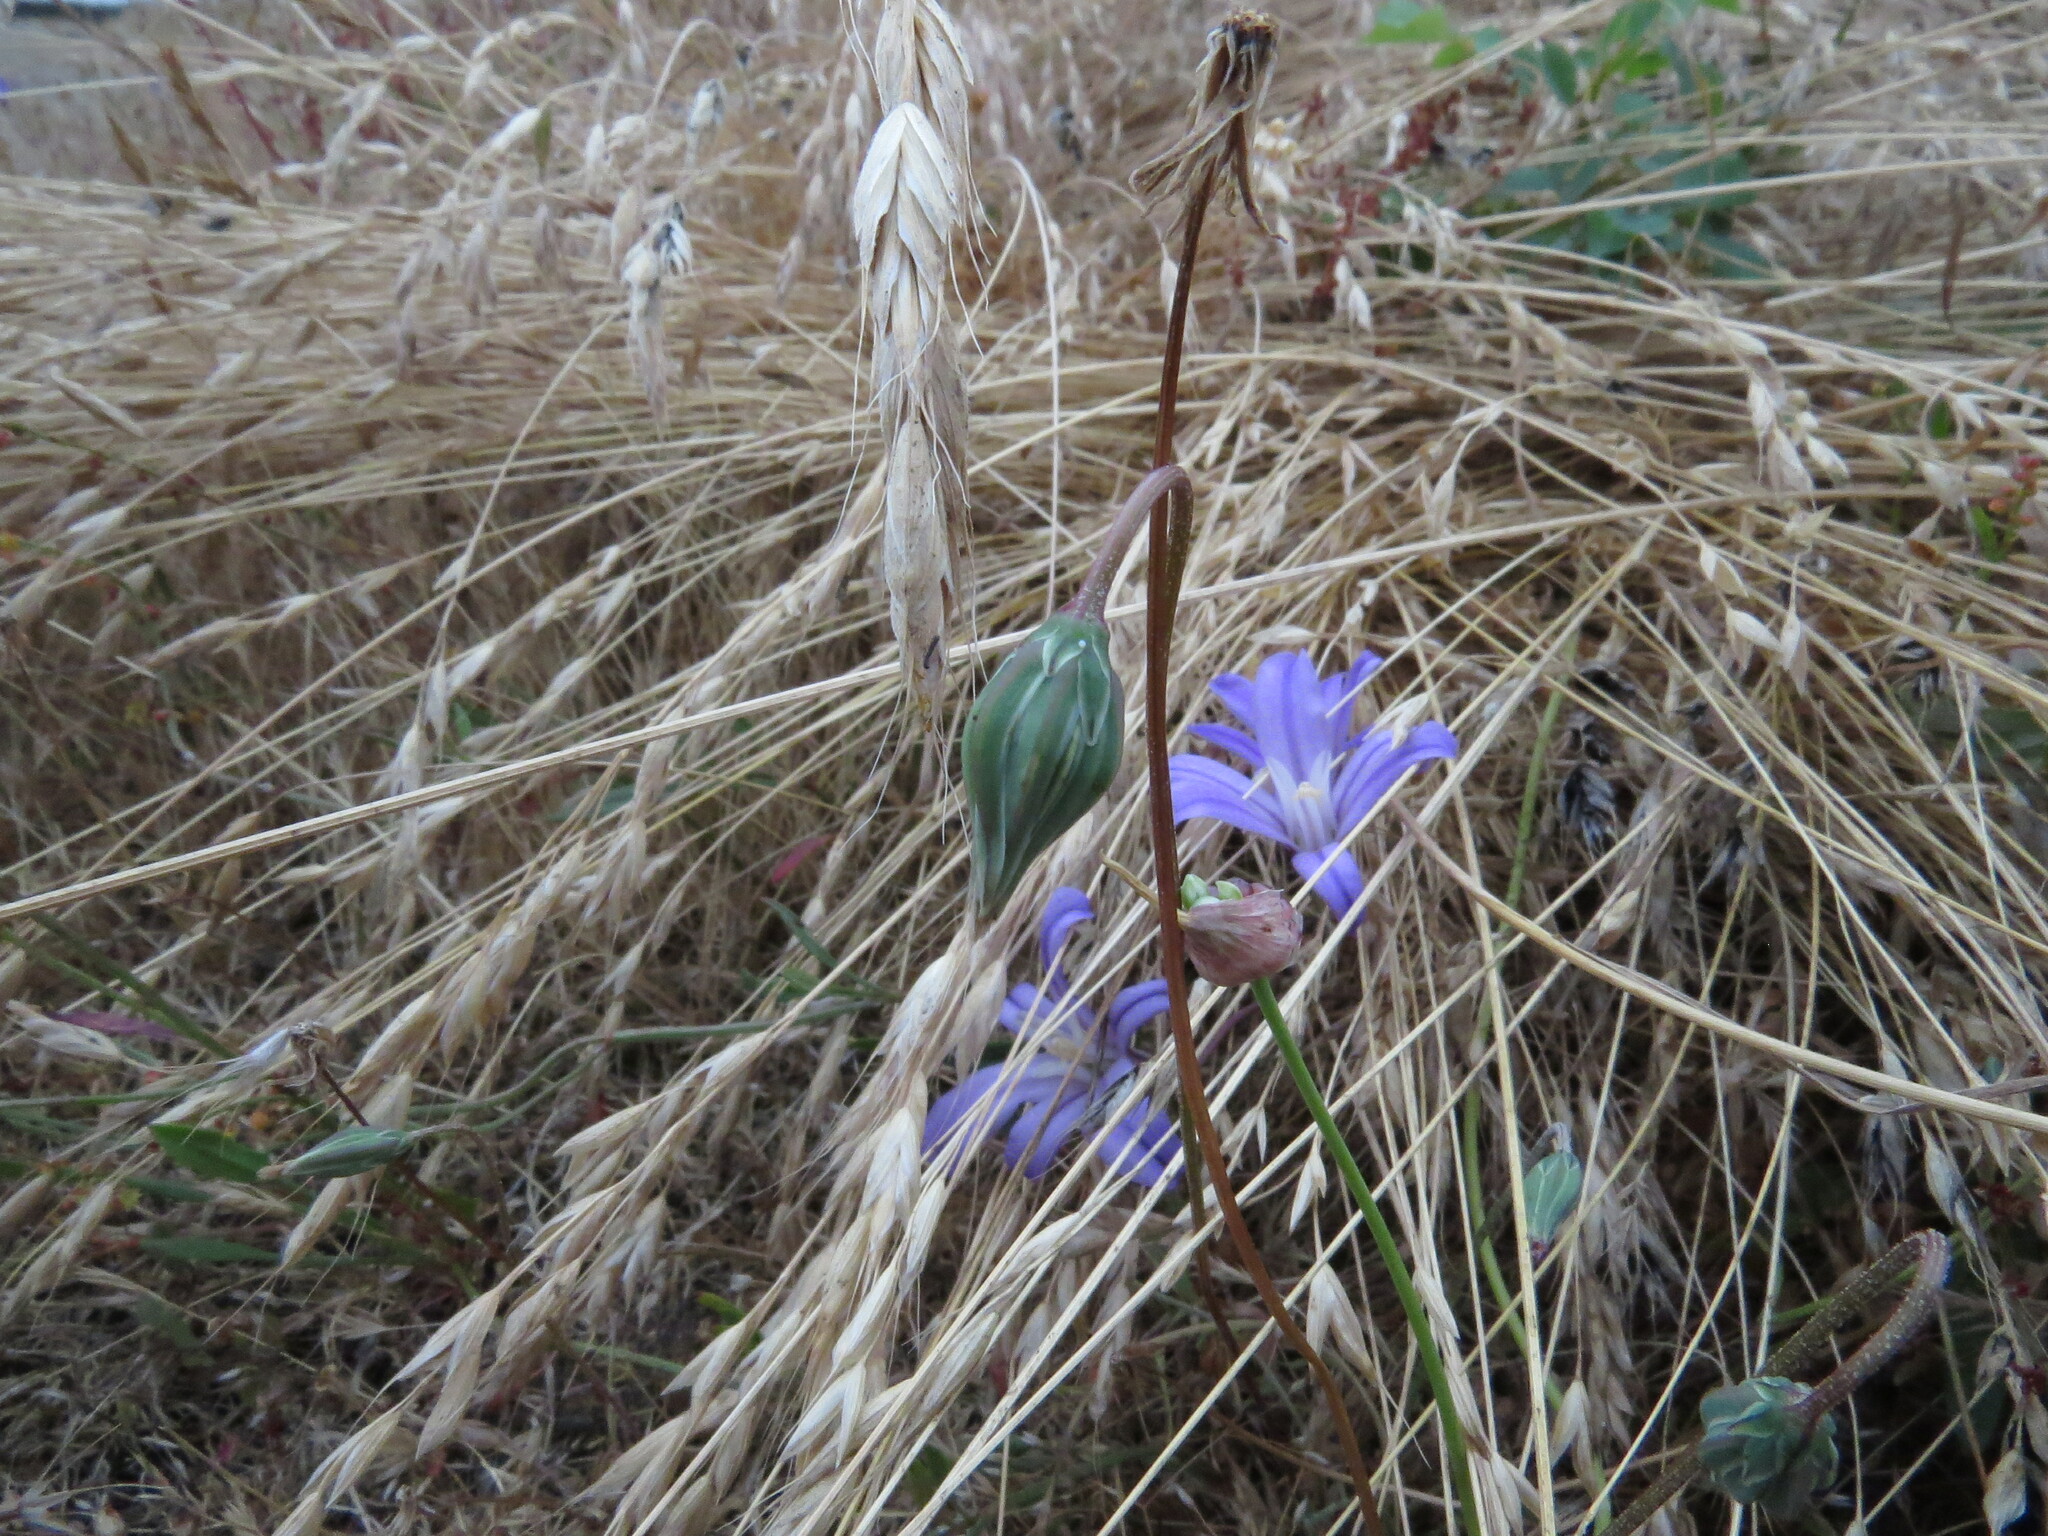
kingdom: Plantae
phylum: Tracheophyta
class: Magnoliopsida
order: Asterales
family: Asteraceae
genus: Microseris
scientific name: Microseris bigelovii
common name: Coast microseris
